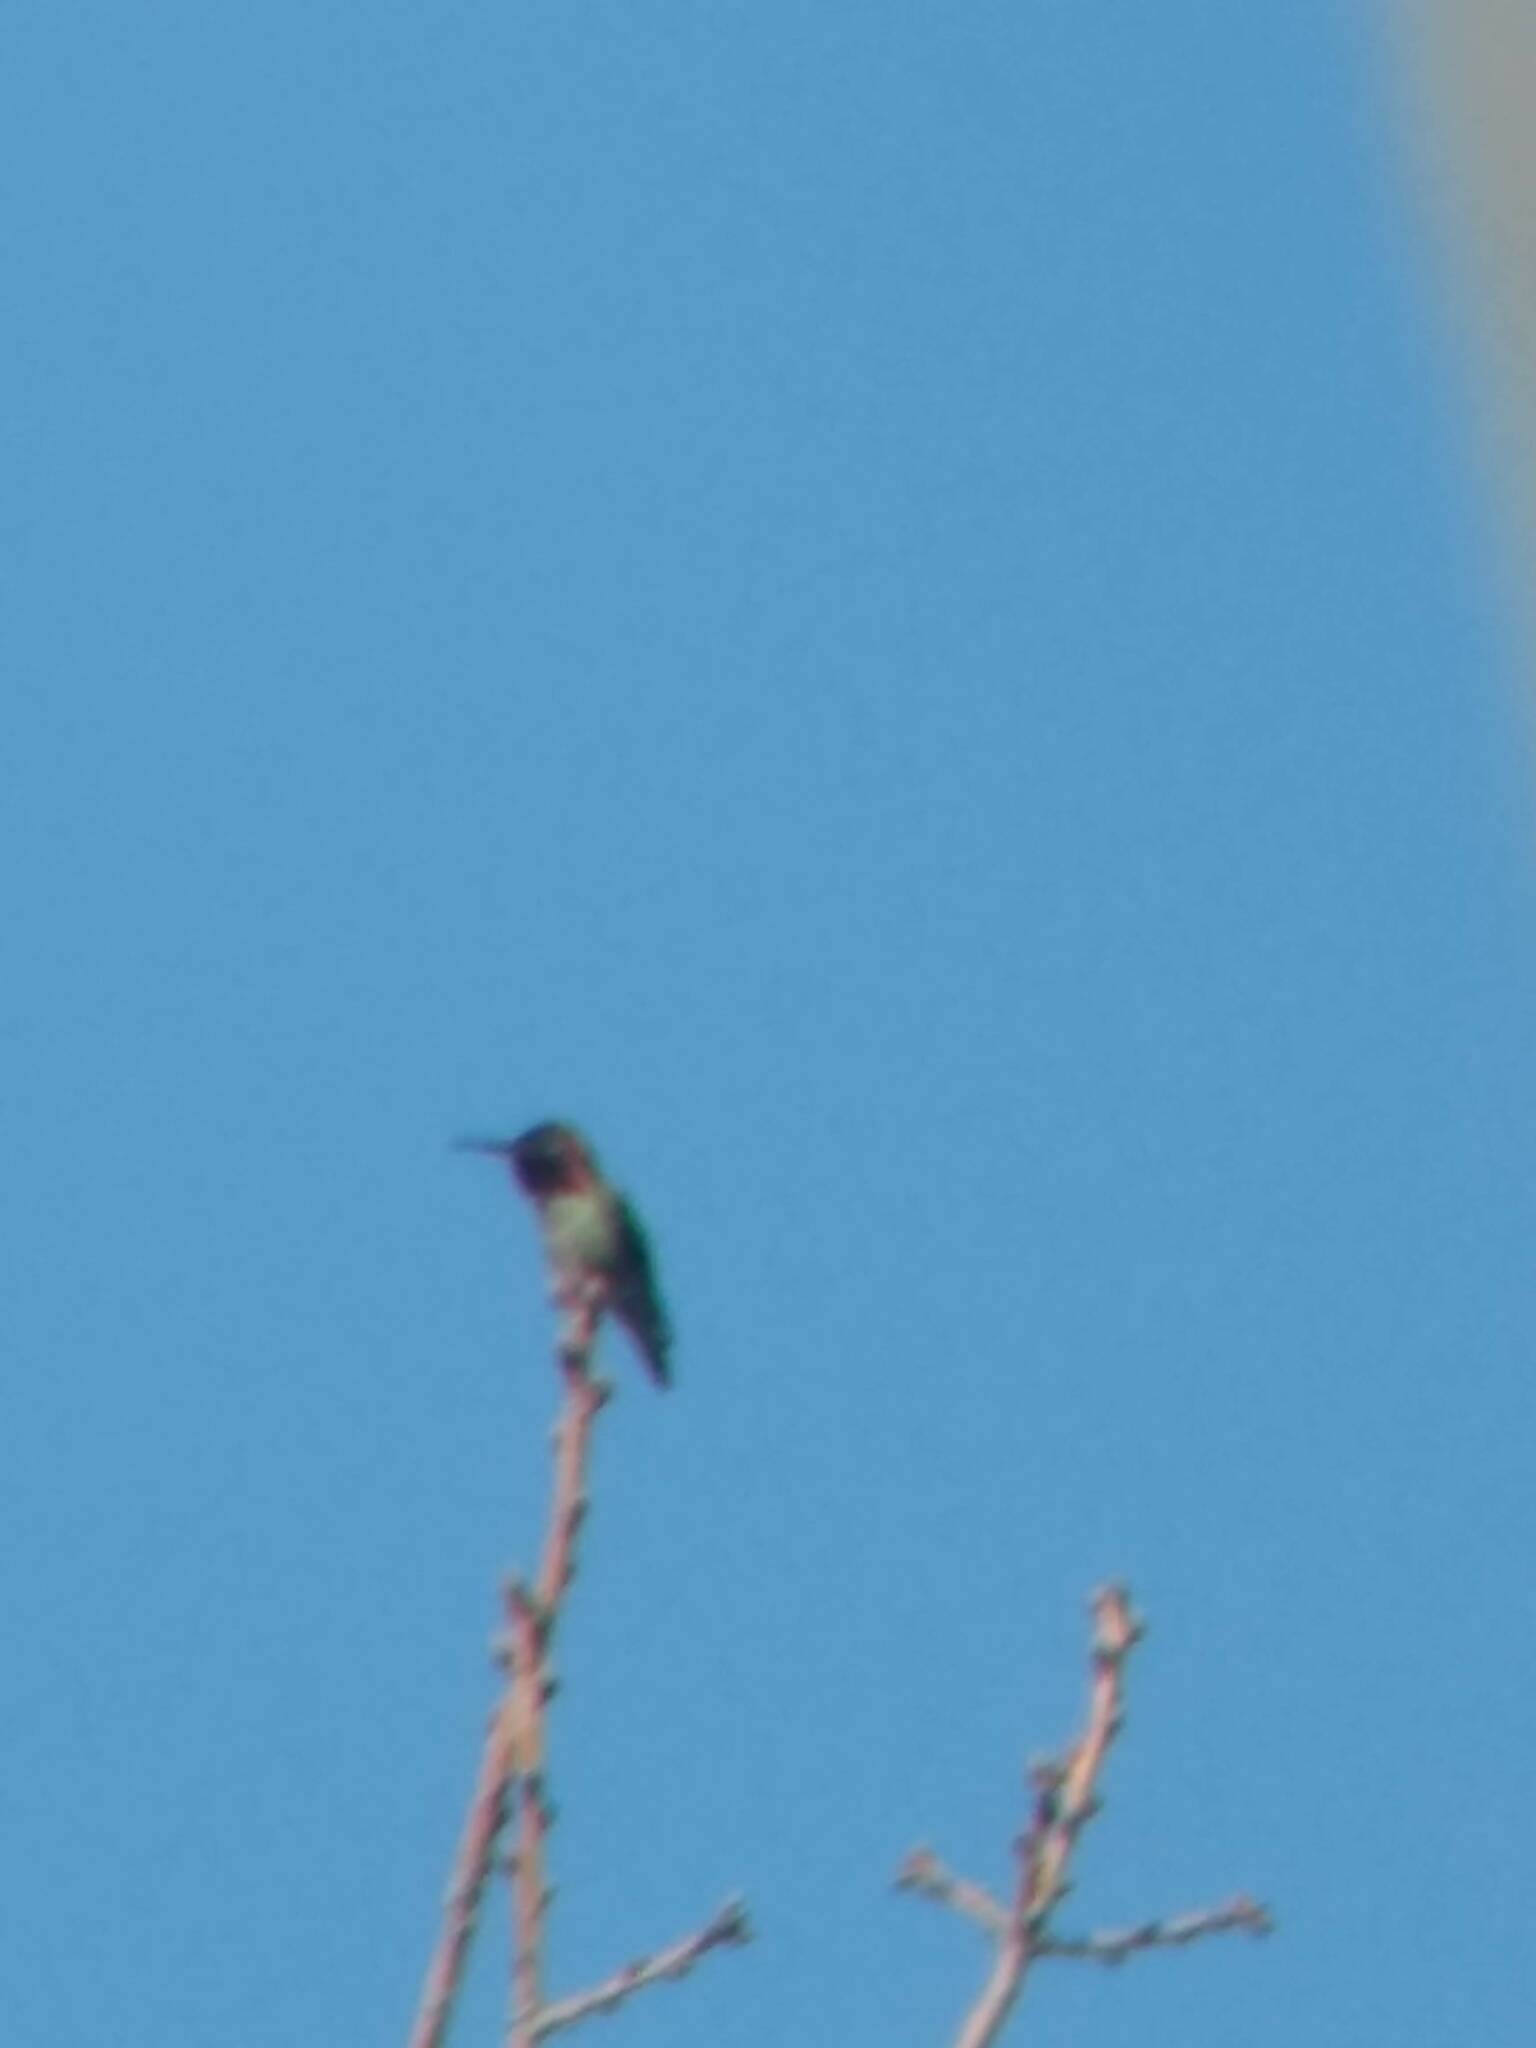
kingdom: Animalia
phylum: Chordata
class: Aves
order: Apodiformes
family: Trochilidae
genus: Calypte
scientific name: Calypte anna
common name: Anna's hummingbird
